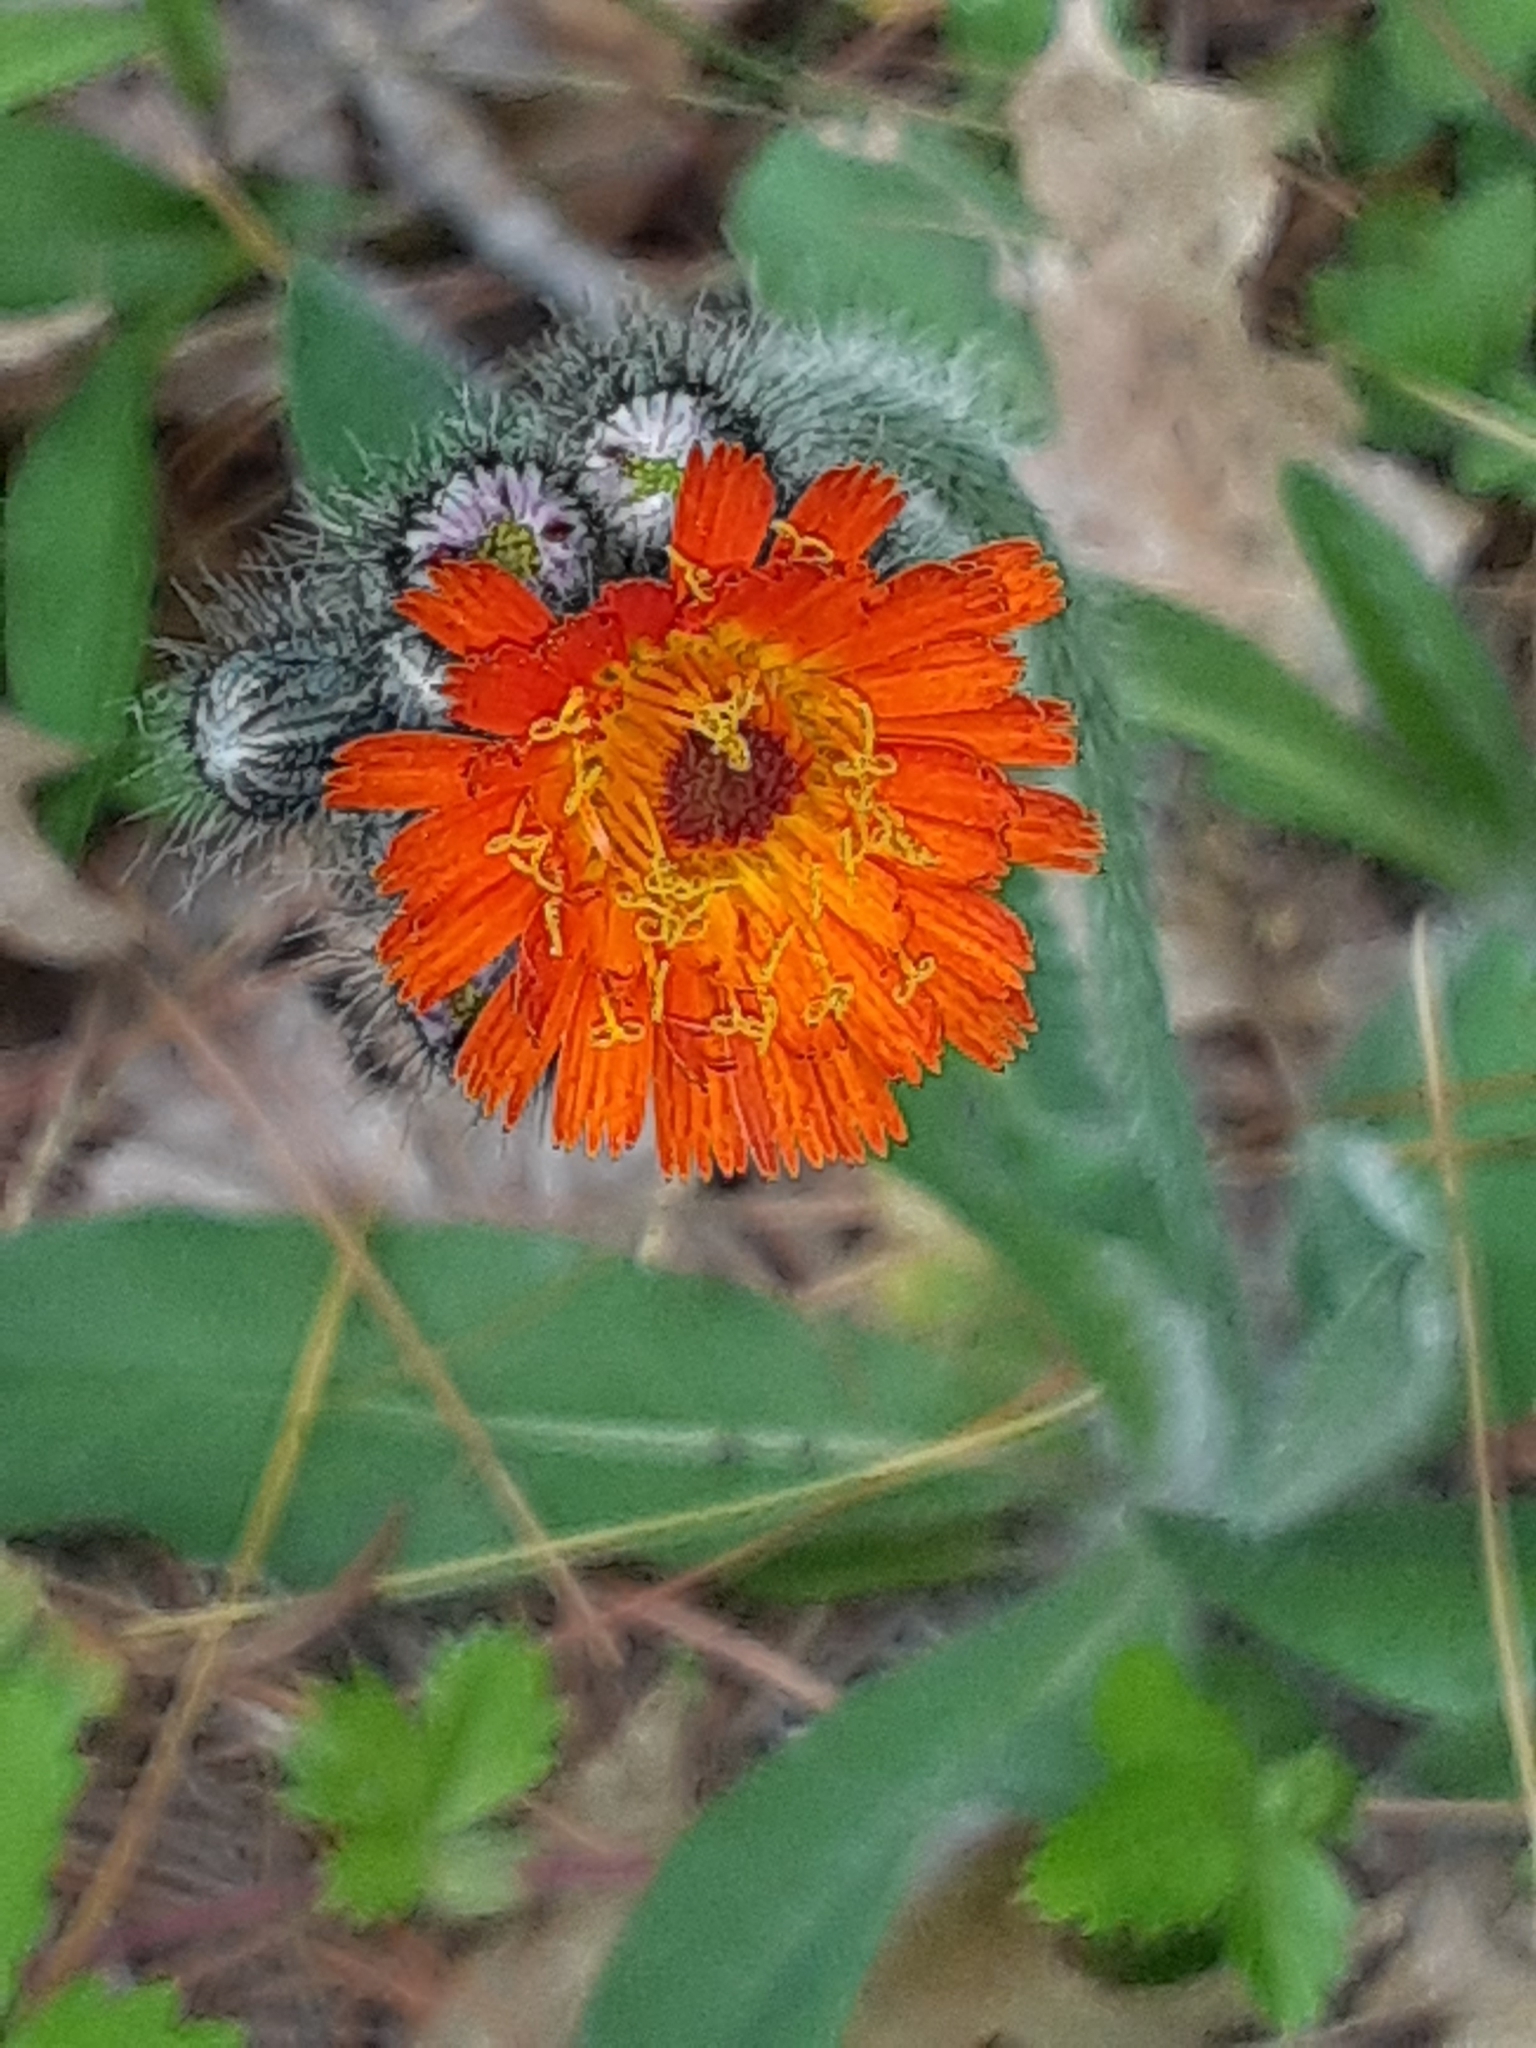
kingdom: Plantae
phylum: Tracheophyta
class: Magnoliopsida
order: Asterales
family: Asteraceae
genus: Pilosella
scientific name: Pilosella aurantiaca
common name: Fox-and-cubs
